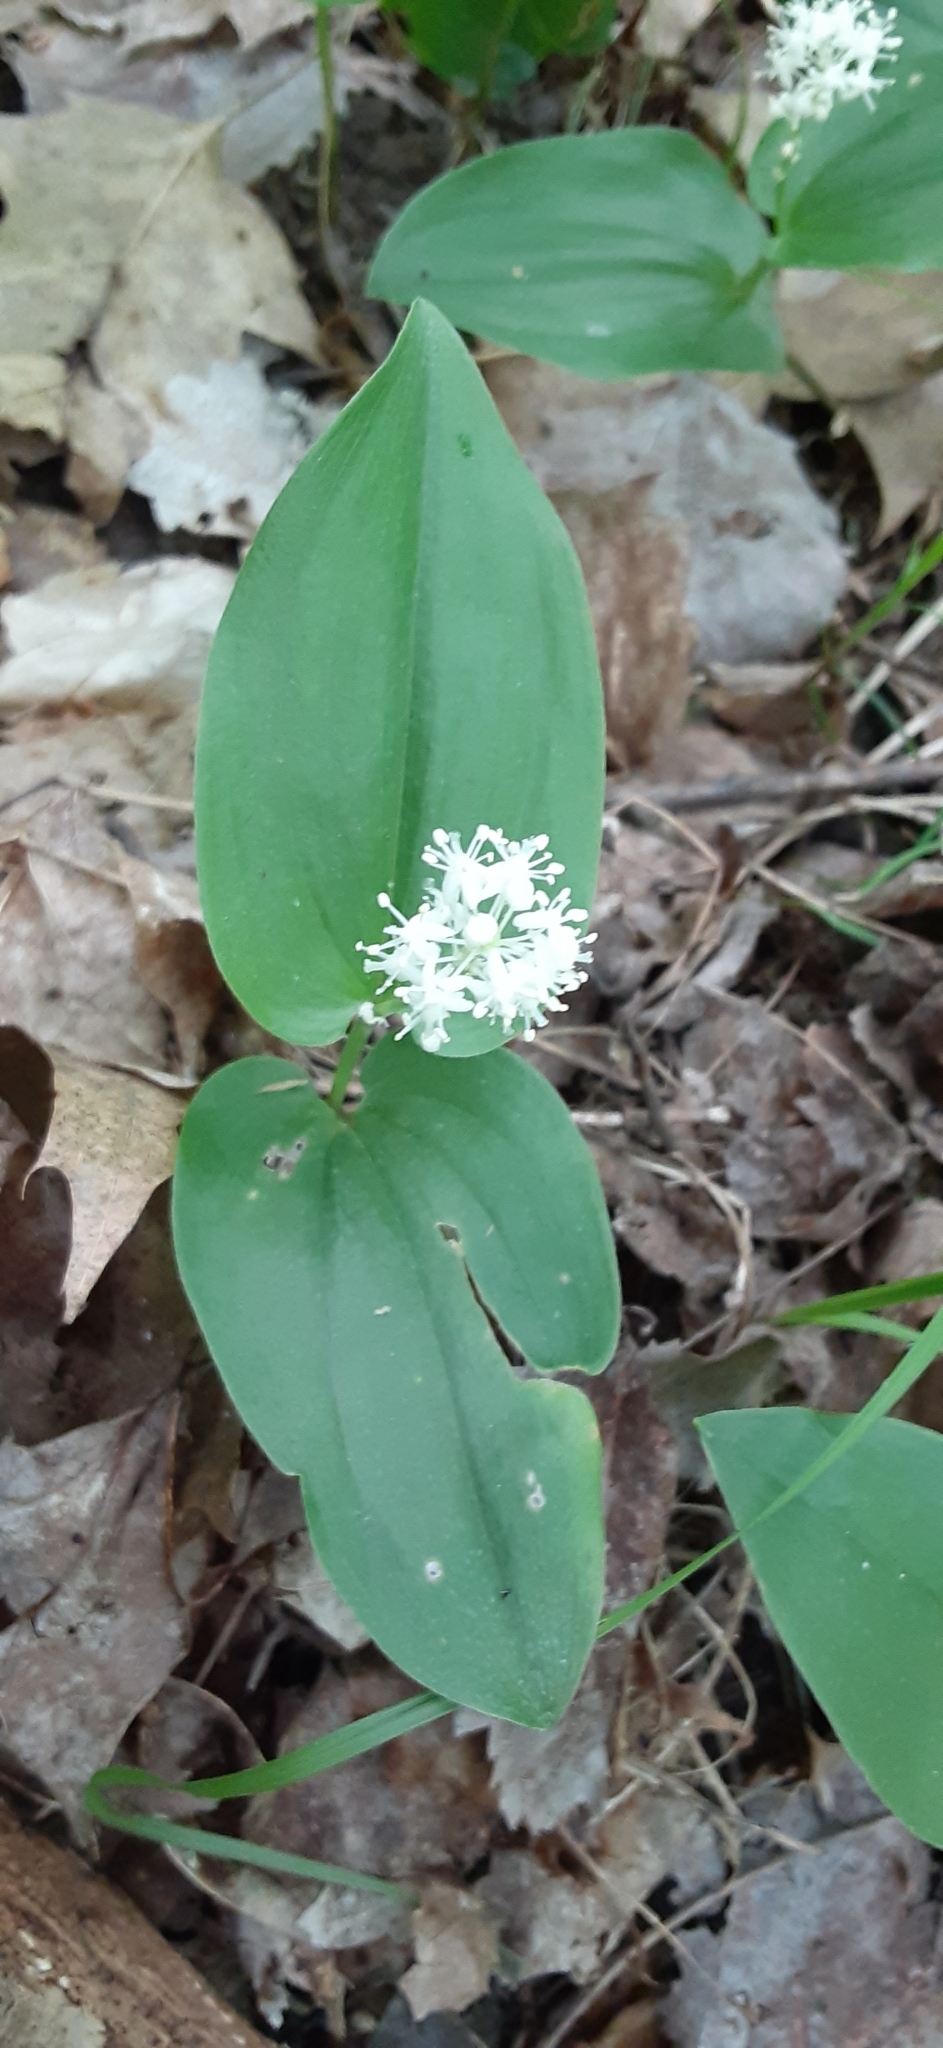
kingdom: Plantae
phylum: Tracheophyta
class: Liliopsida
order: Asparagales
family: Asparagaceae
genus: Maianthemum
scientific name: Maianthemum canadense
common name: False lily-of-the-valley
